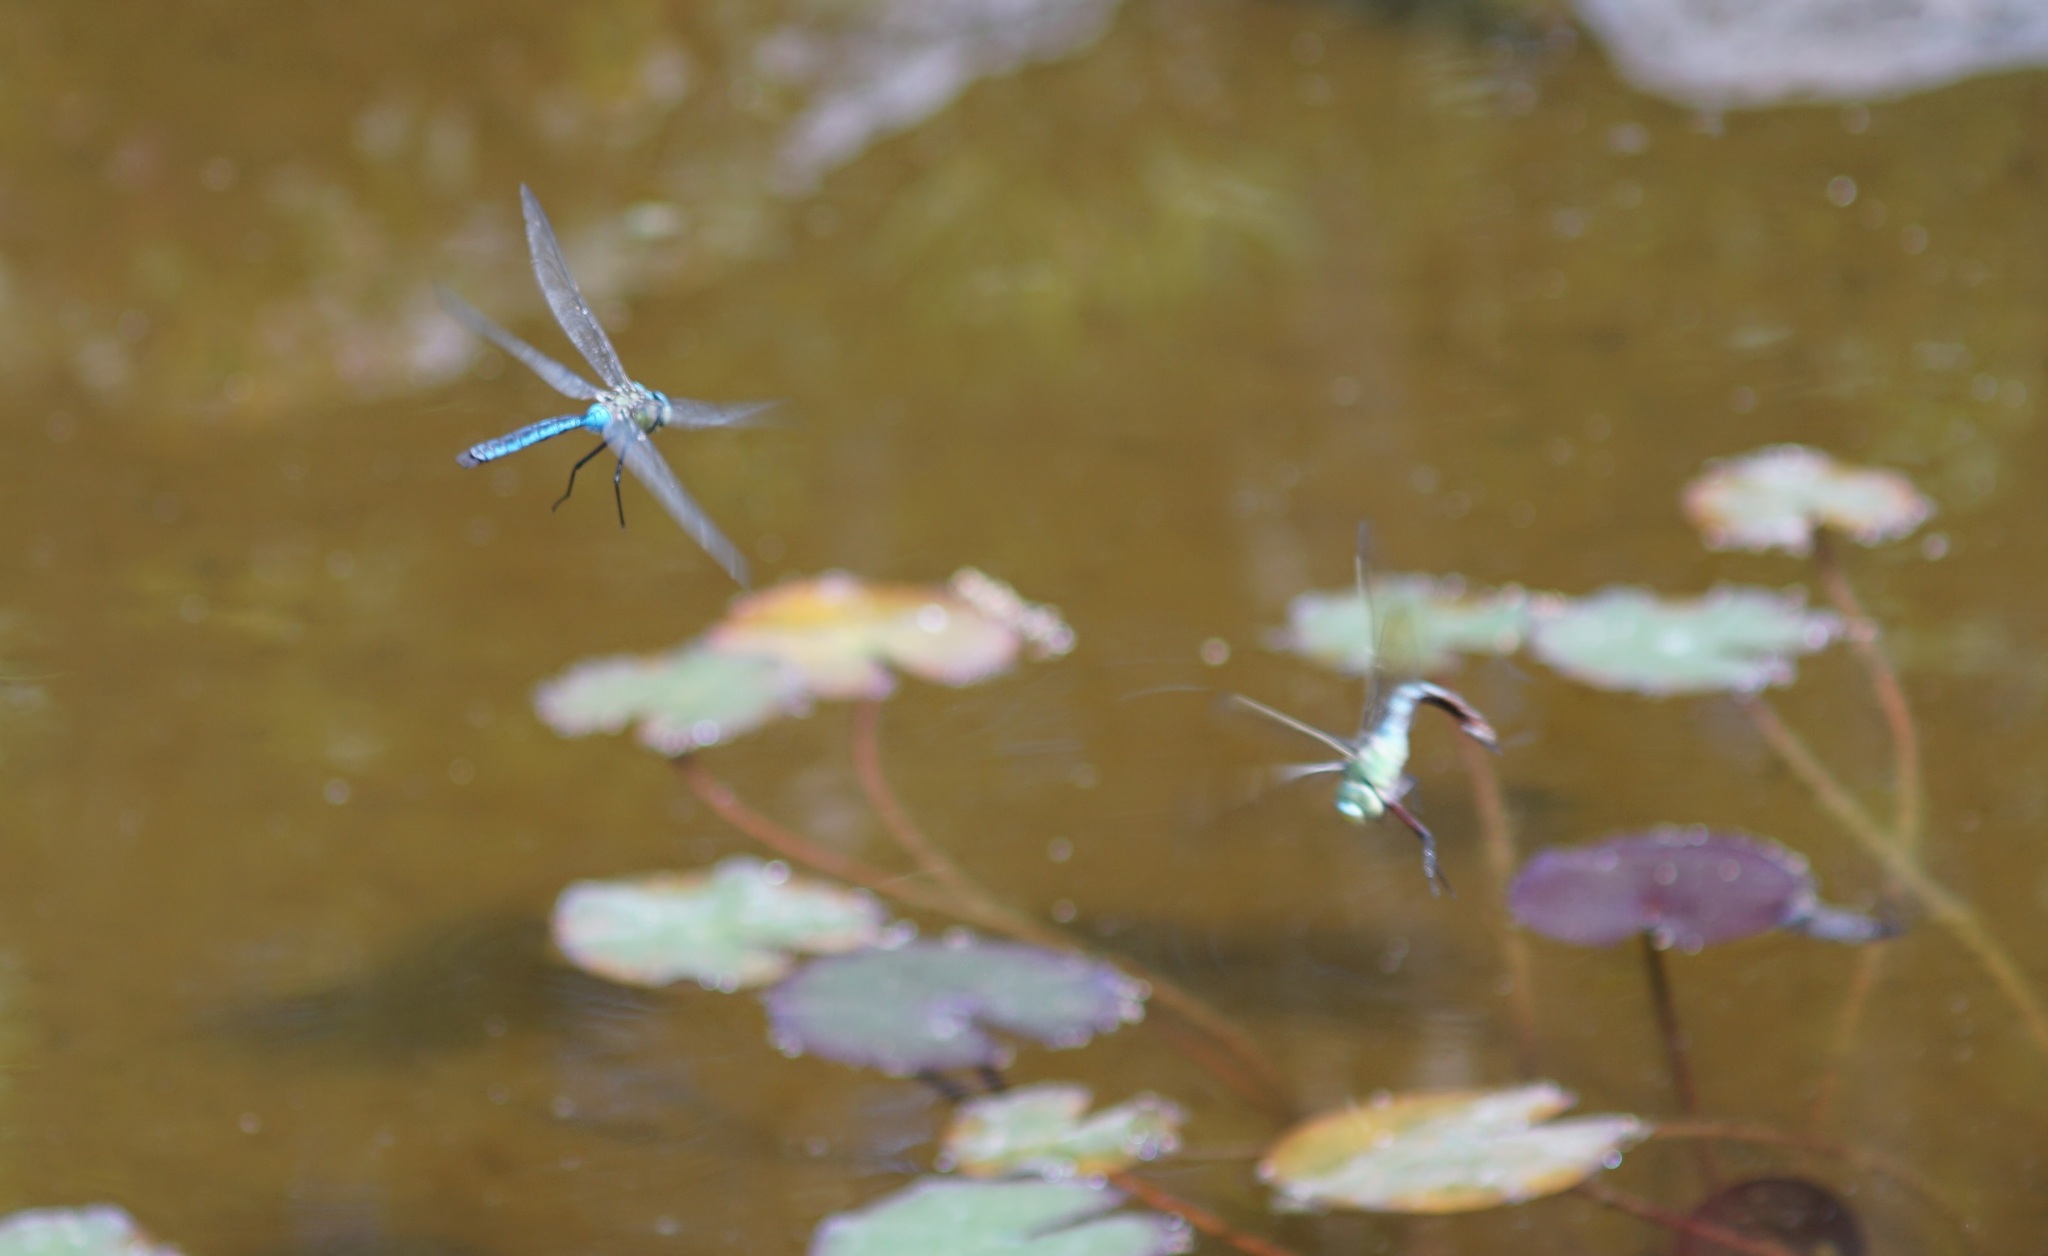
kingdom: Animalia
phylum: Arthropoda
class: Insecta
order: Odonata
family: Aeshnidae
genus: Anax
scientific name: Anax imperator
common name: Emperor dragonfly
